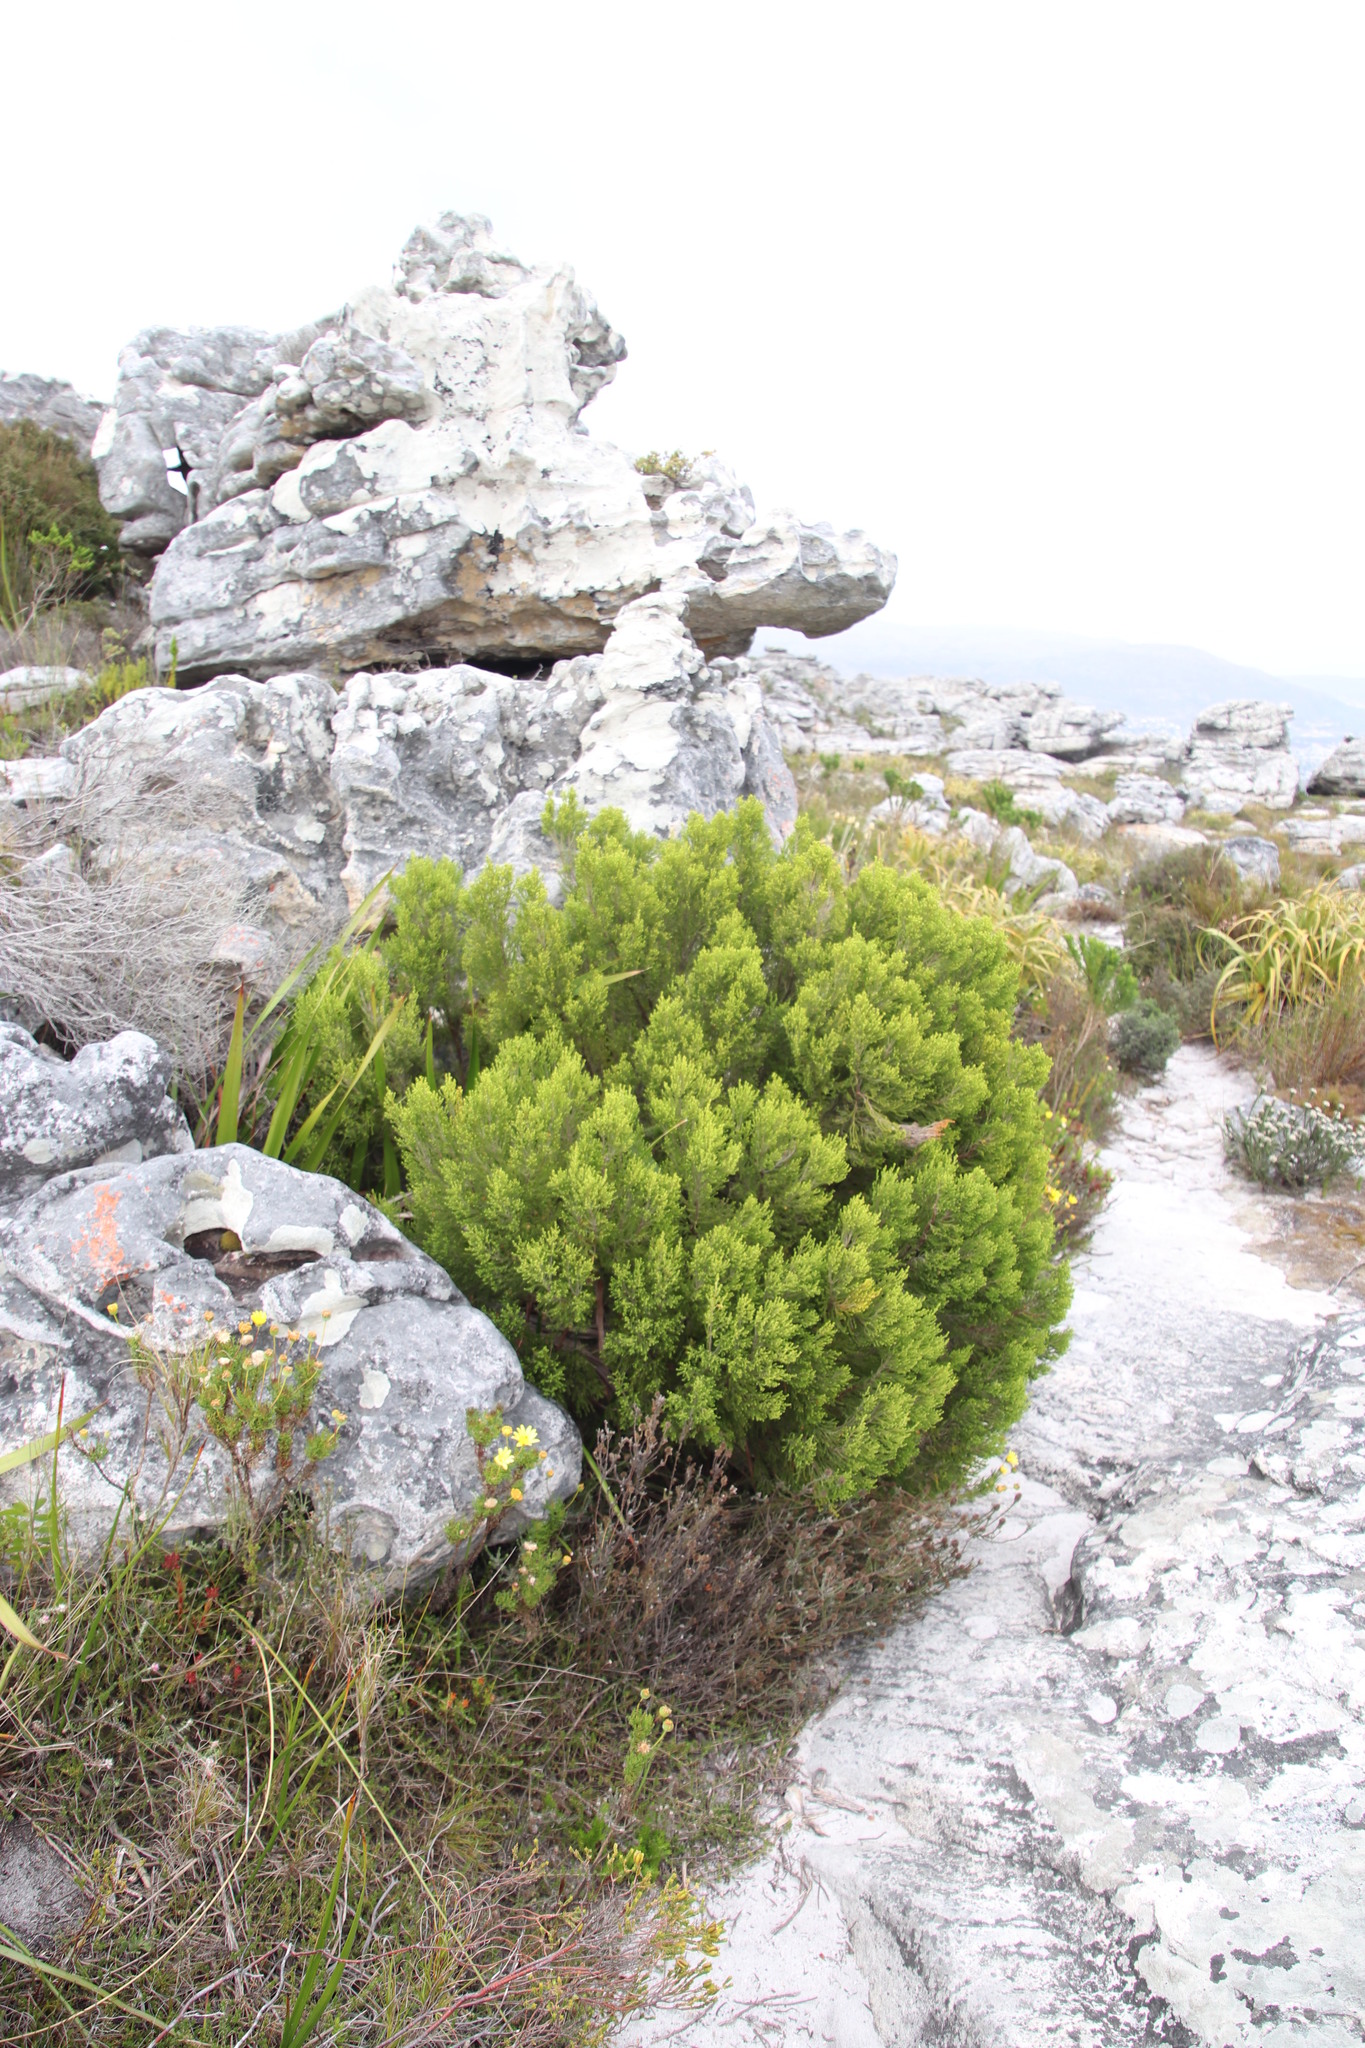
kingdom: Plantae
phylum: Tracheophyta
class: Magnoliopsida
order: Ericales
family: Ericaceae
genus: Erica
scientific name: Erica tristis
